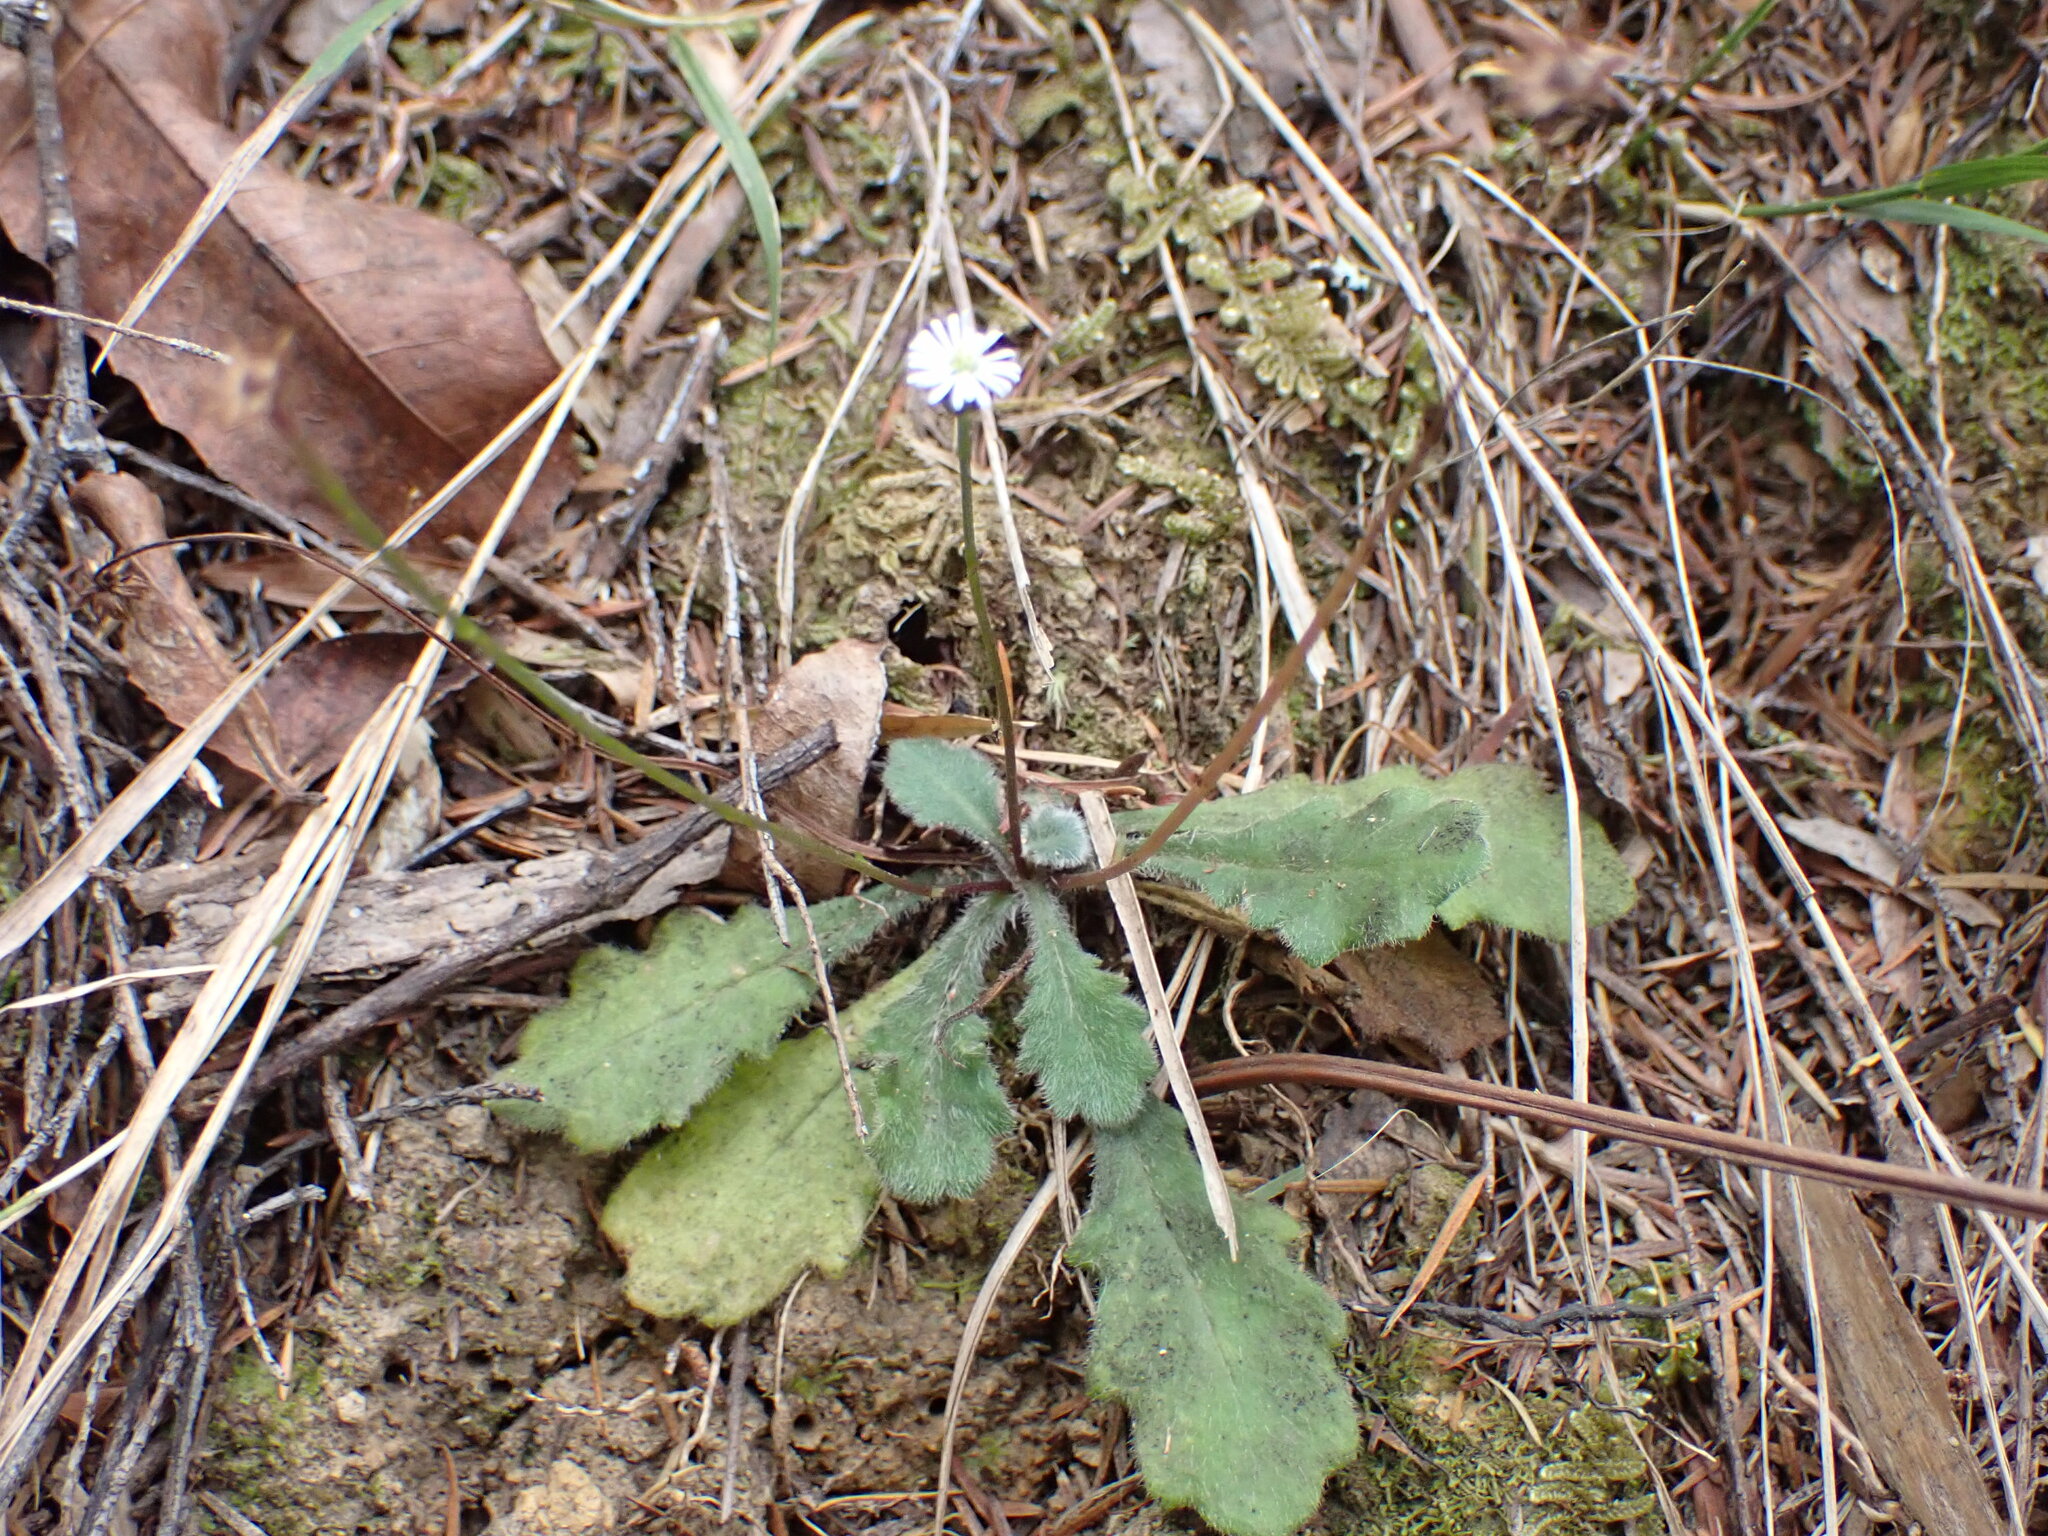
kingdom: Plantae
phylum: Tracheophyta
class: Magnoliopsida
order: Asterales
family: Asteraceae
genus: Lagenophora
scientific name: Lagenophora sublyrata ter
